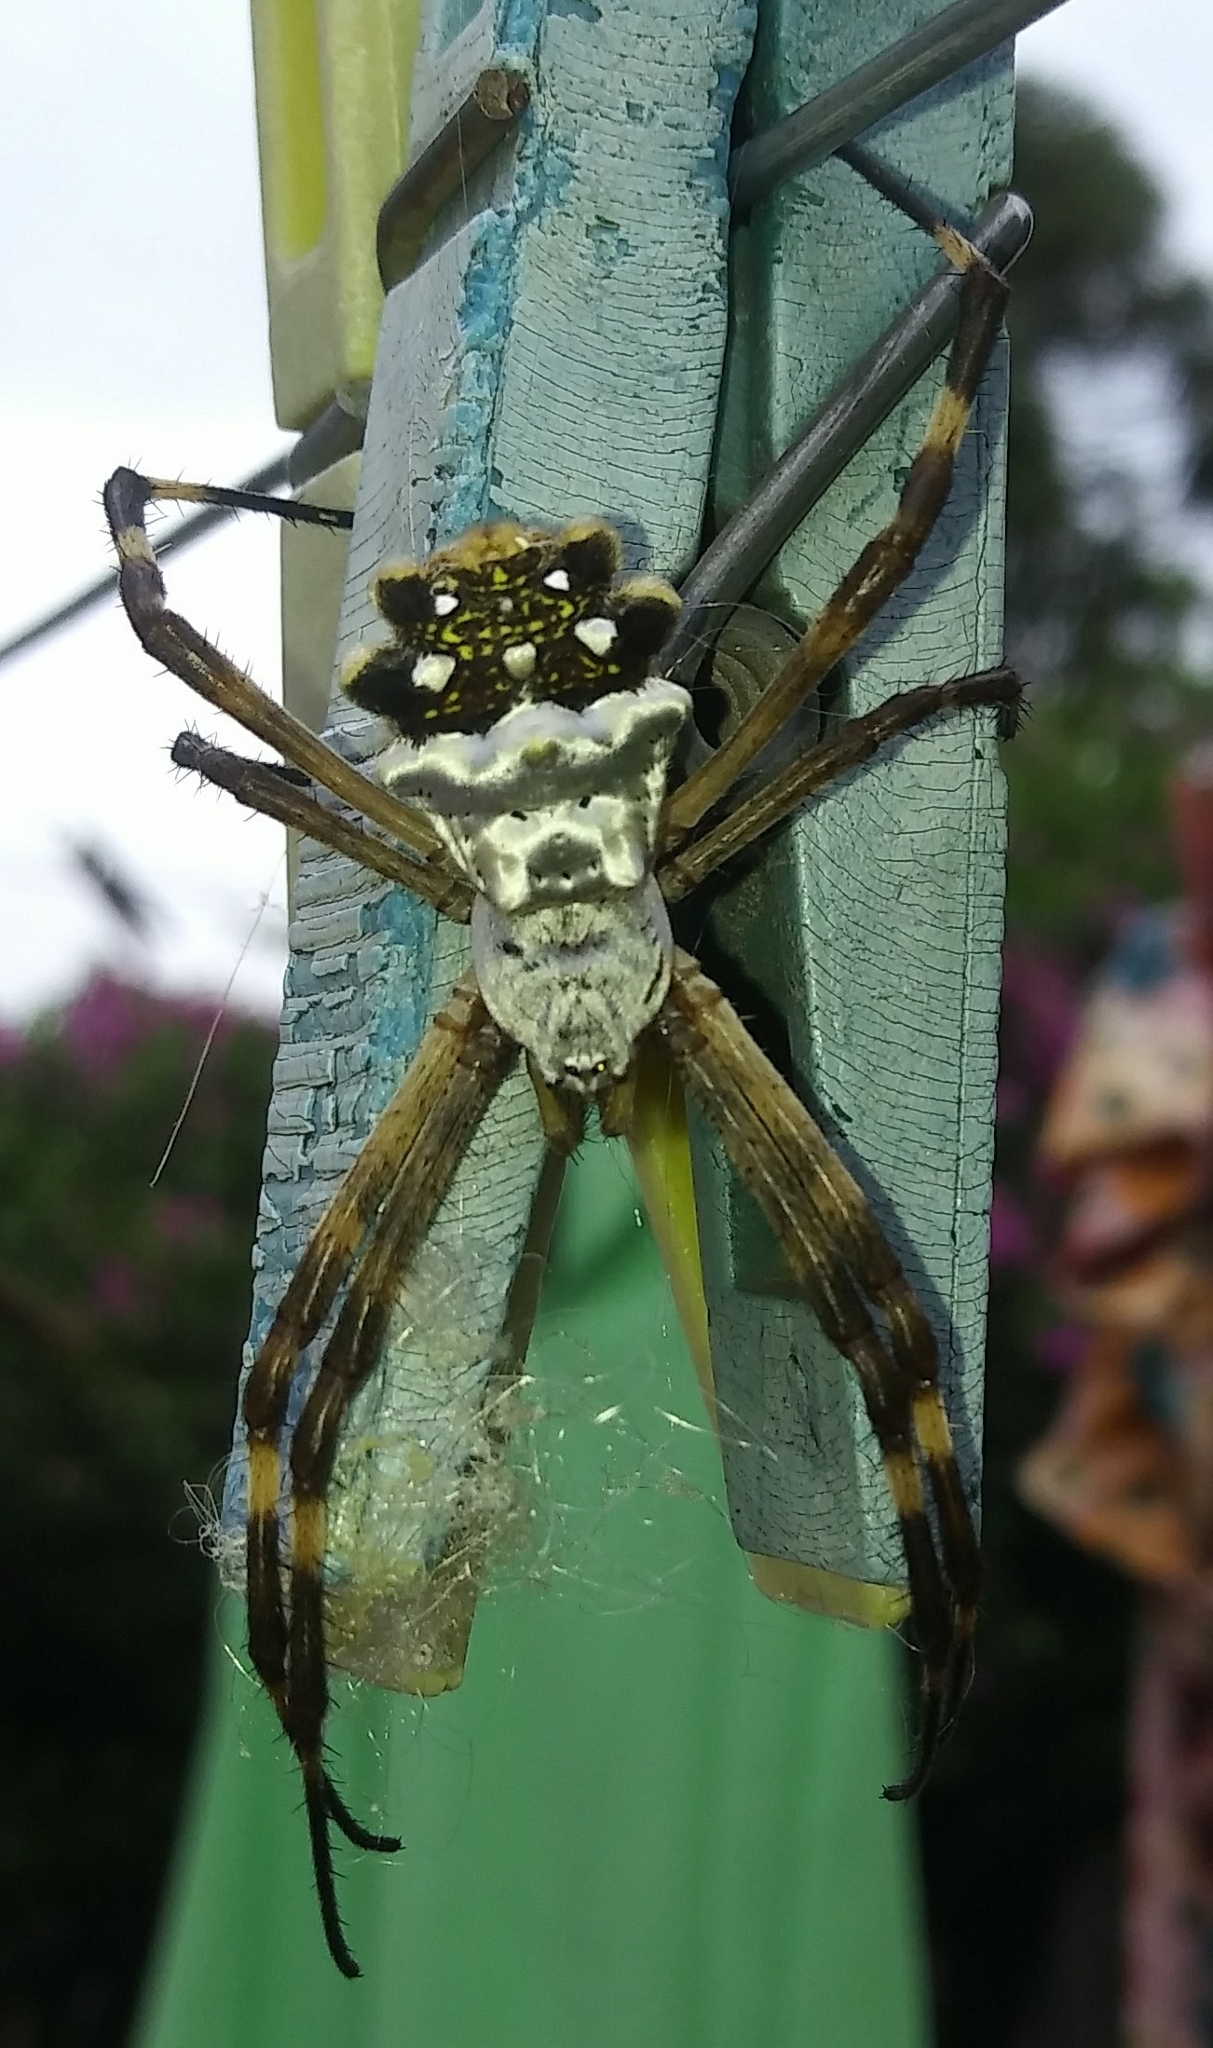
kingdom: Animalia
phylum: Arthropoda
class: Arachnida
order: Araneae
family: Araneidae
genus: Argiope
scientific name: Argiope argentata
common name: Orb weavers
